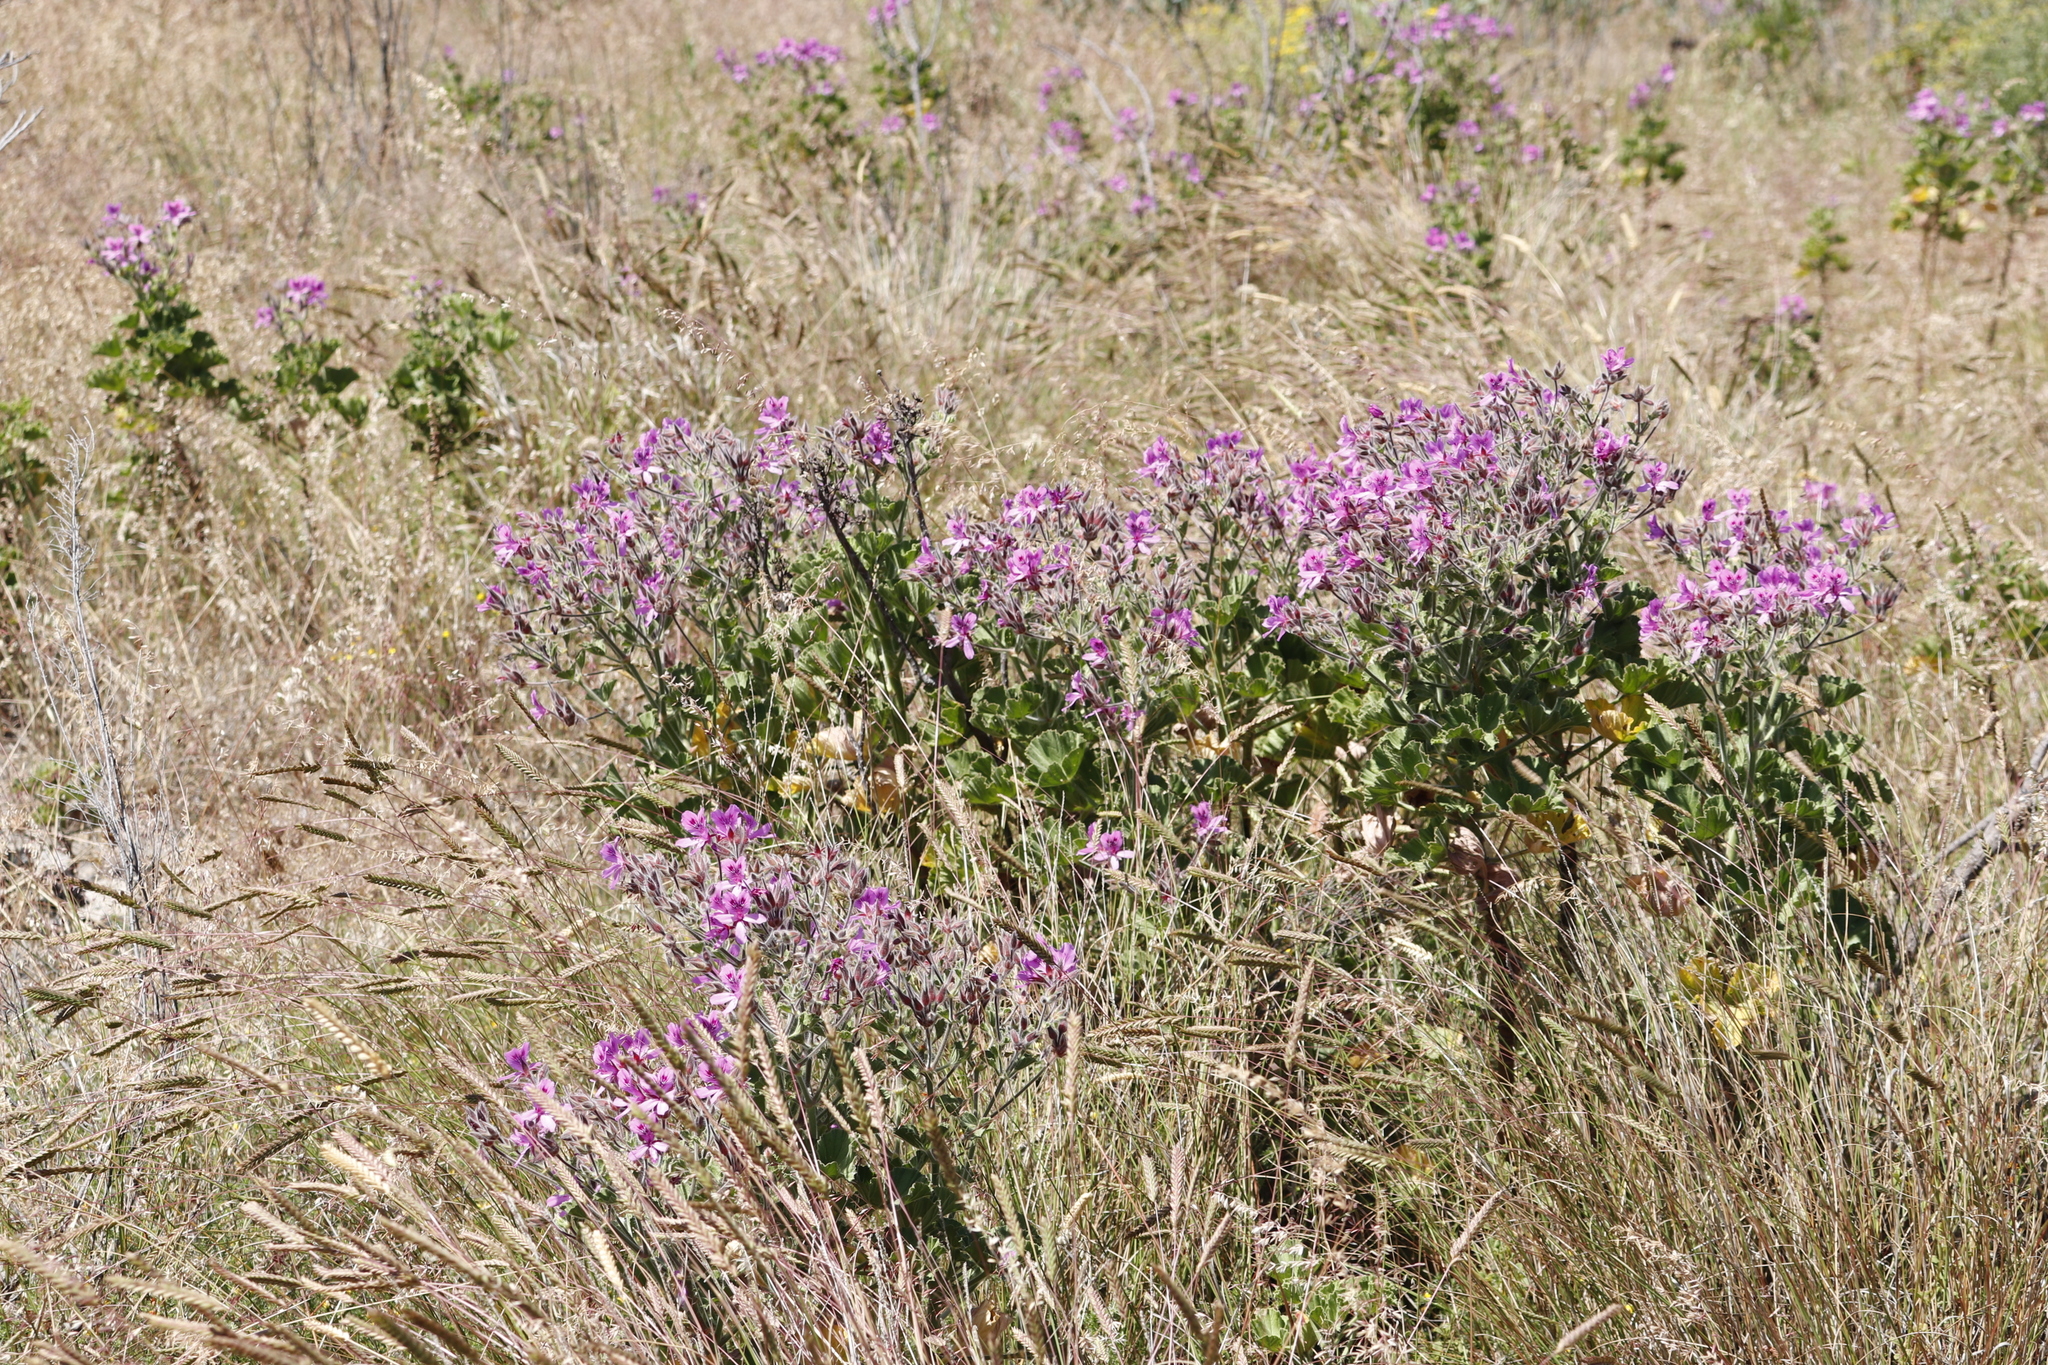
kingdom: Plantae
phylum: Tracheophyta
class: Magnoliopsida
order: Geraniales
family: Geraniaceae
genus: Pelargonium
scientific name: Pelargonium cucullatum
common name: Tree pelargonium
